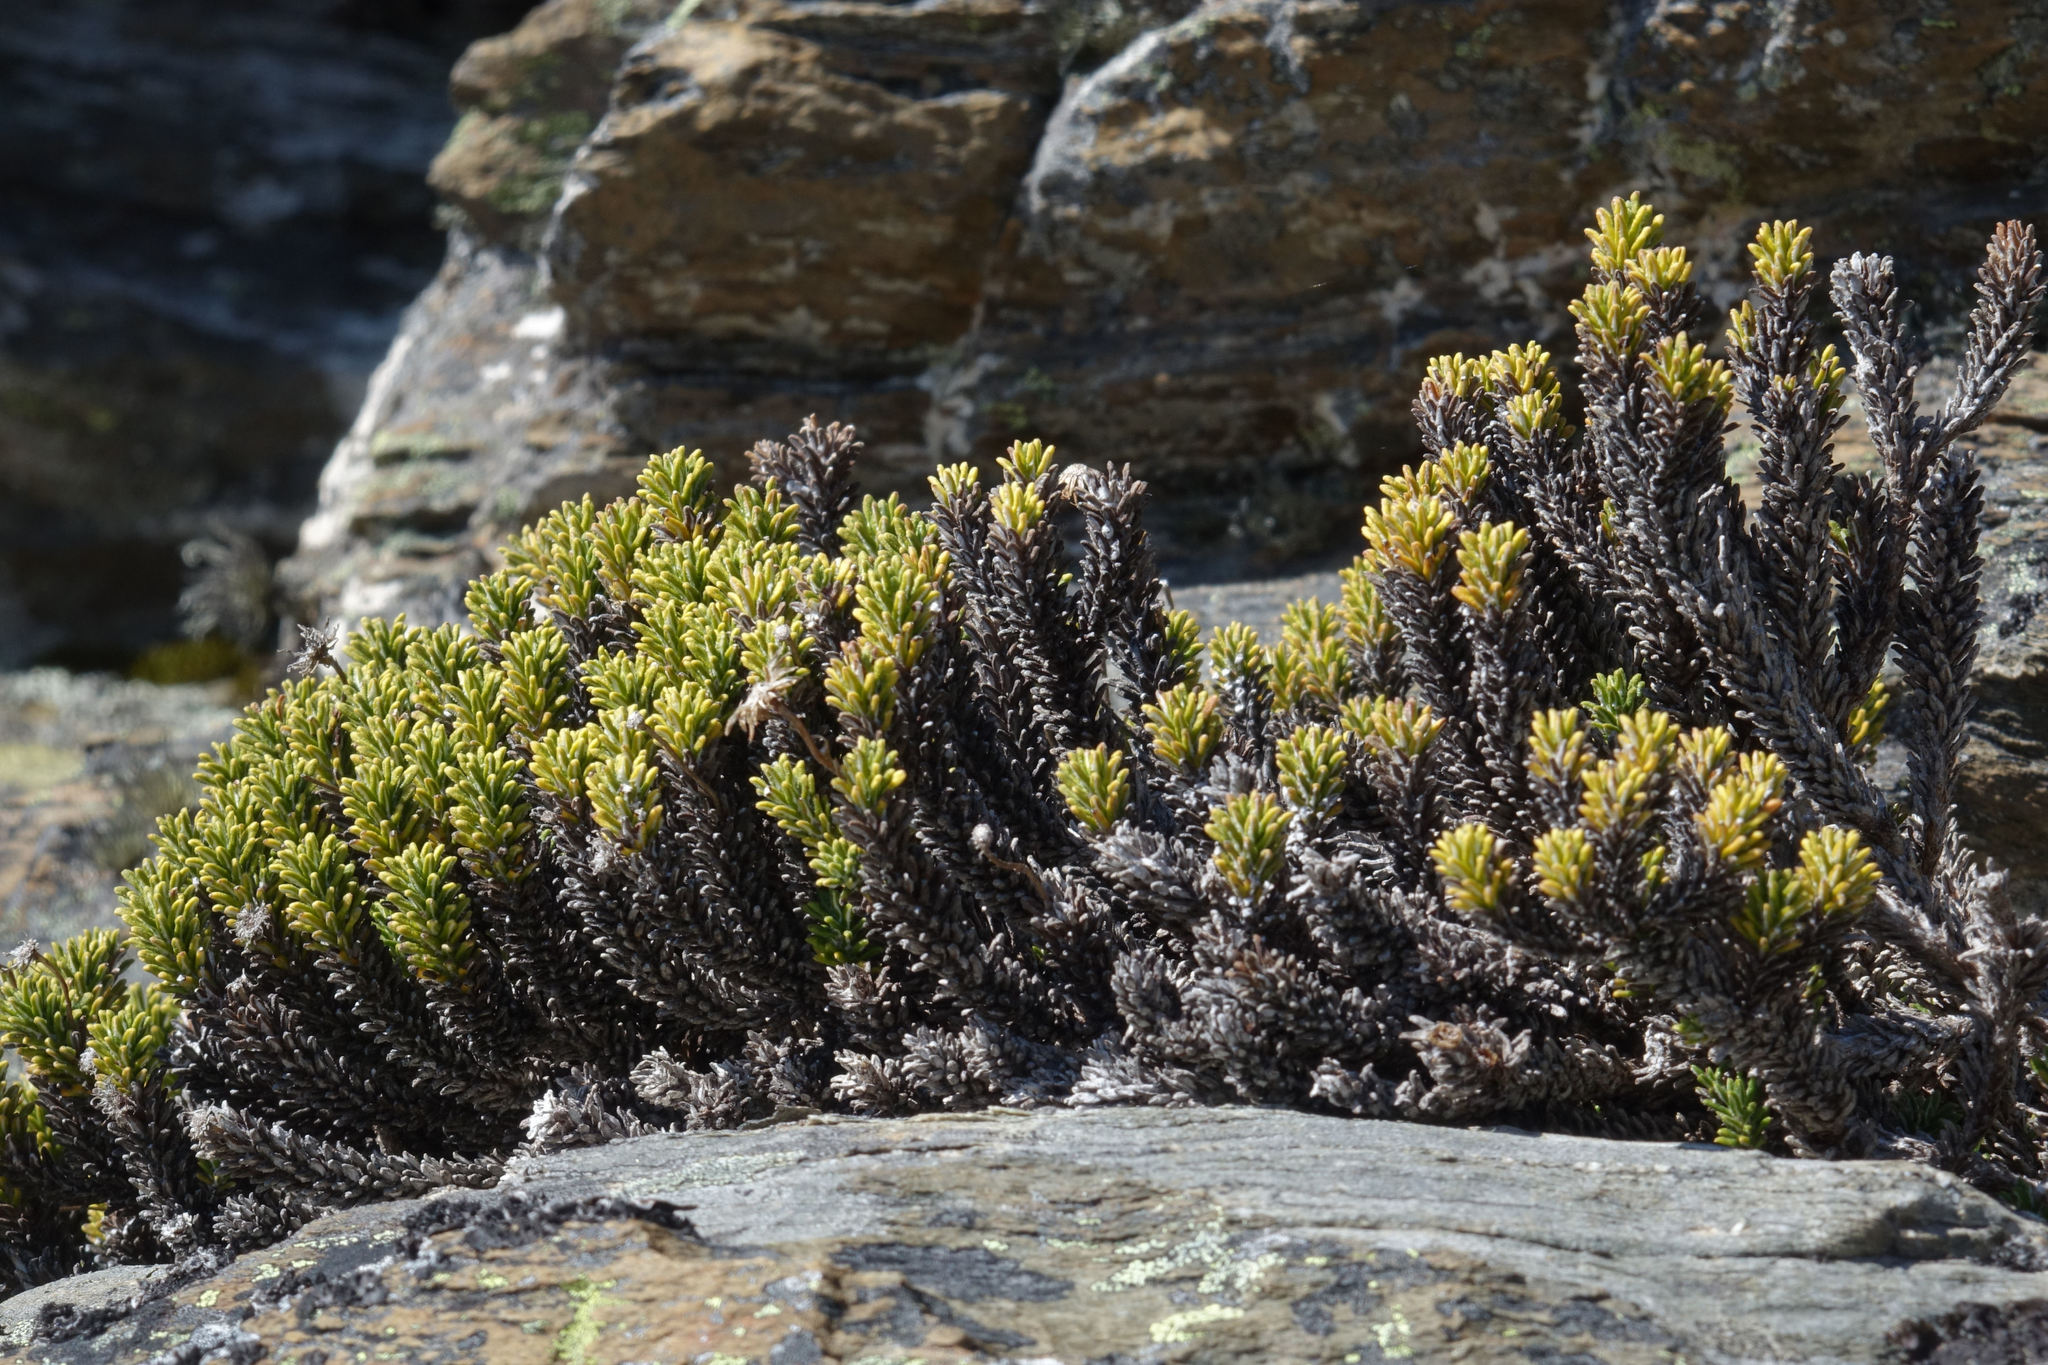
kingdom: Plantae
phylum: Tracheophyta
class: Magnoliopsida
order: Asterales
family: Asteraceae
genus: Celmisia
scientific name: Celmisia ramulosa
